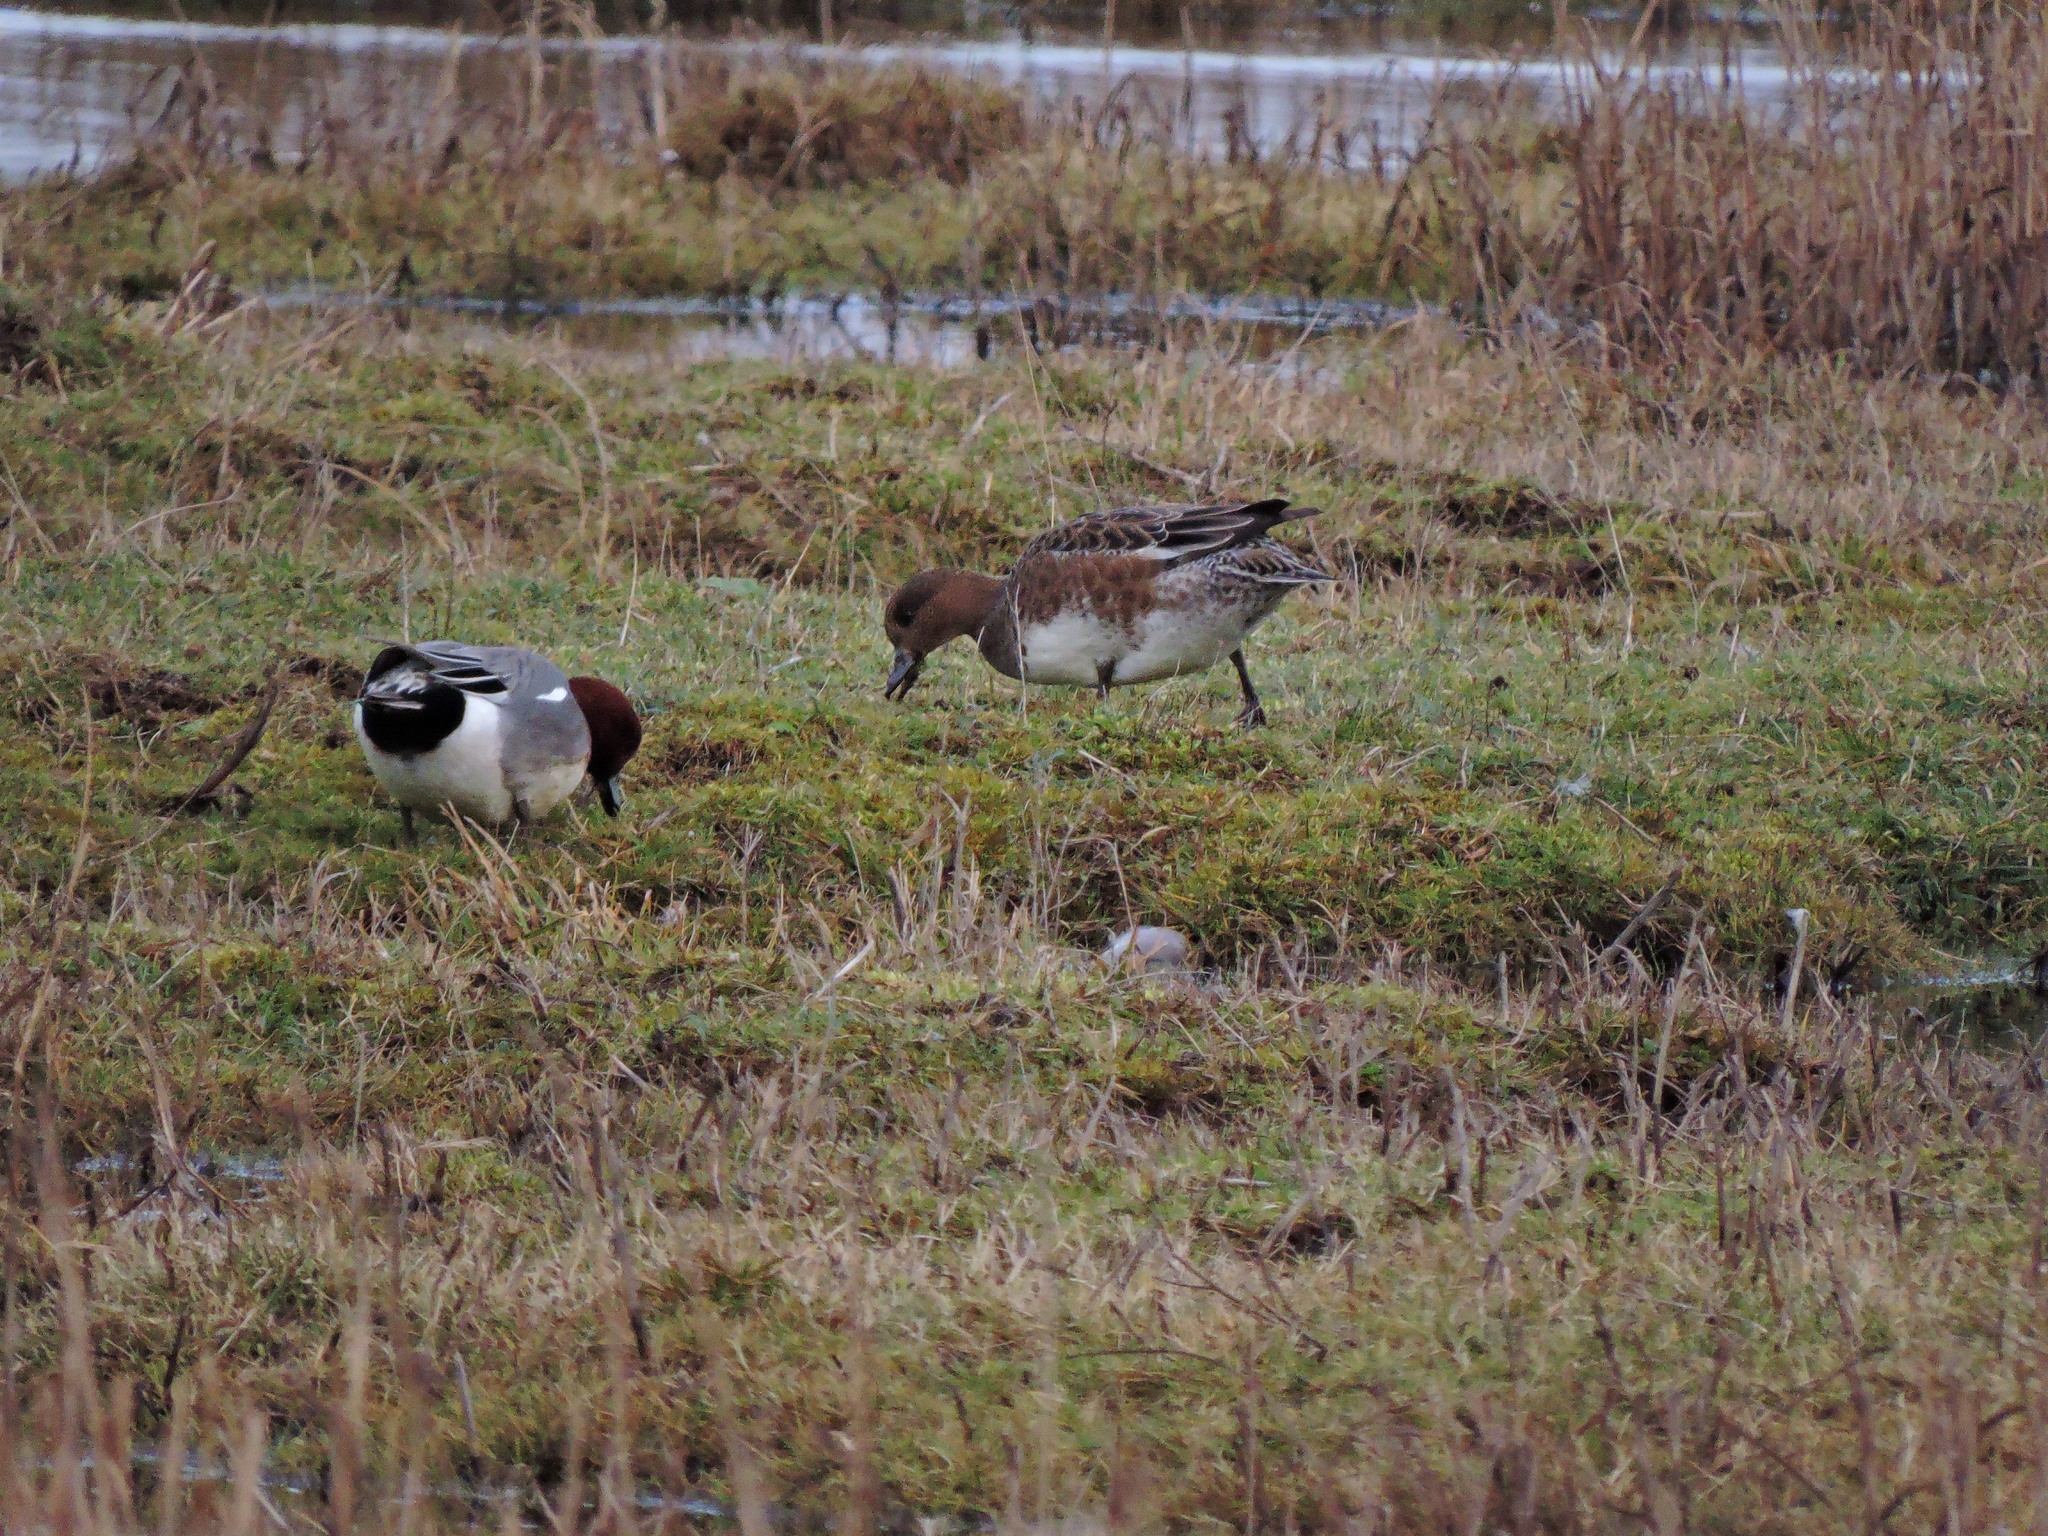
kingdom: Animalia
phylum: Chordata
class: Aves
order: Anseriformes
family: Anatidae
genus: Mareca
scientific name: Mareca penelope
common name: Eurasian wigeon
